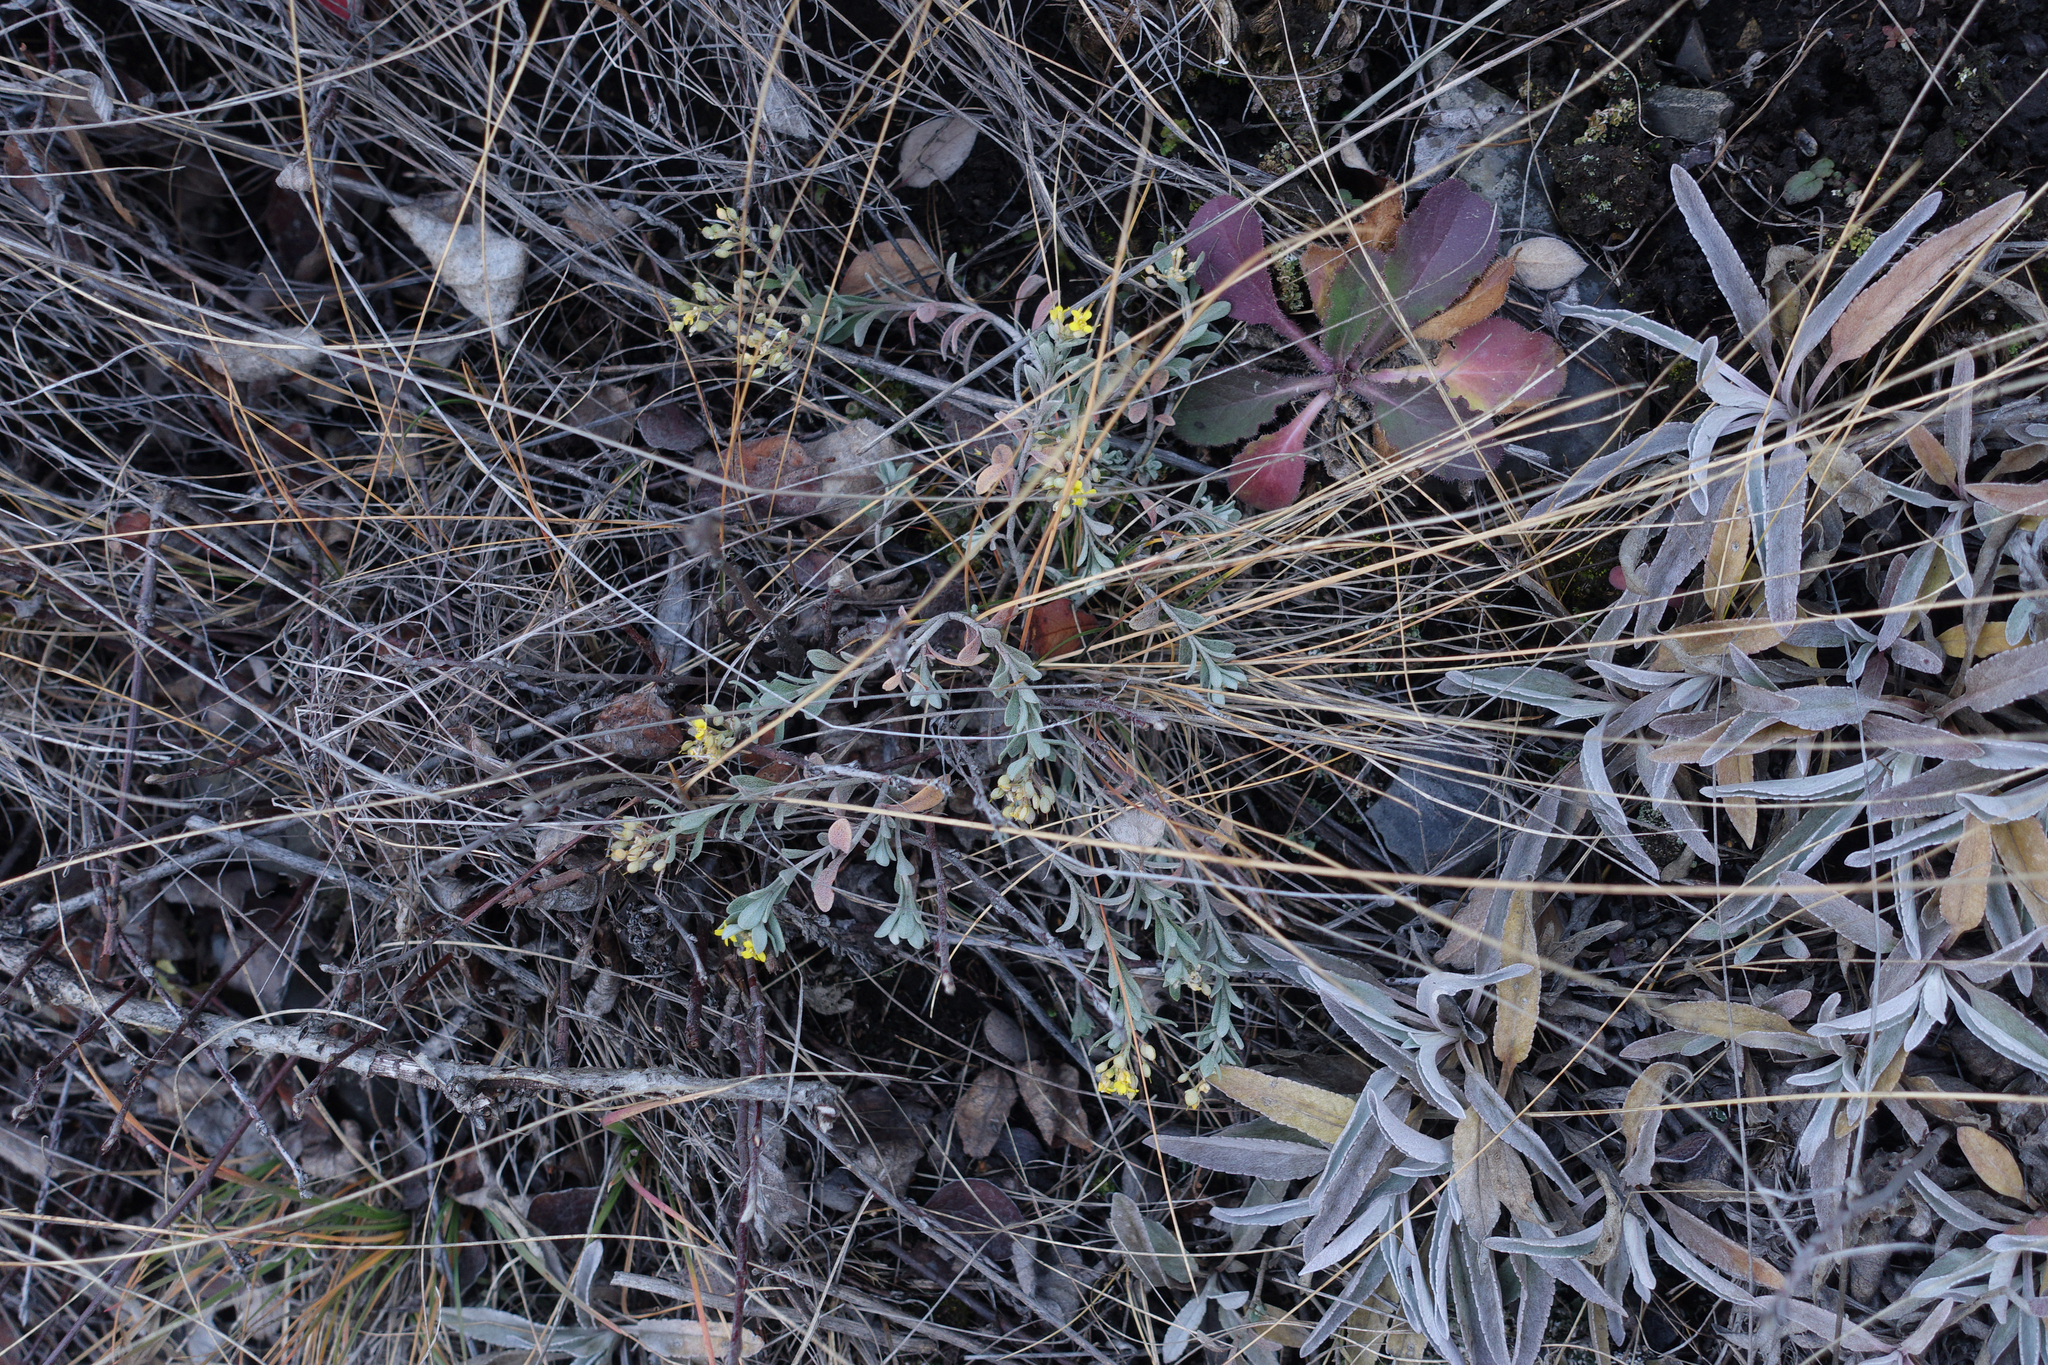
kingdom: Plantae
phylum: Tracheophyta
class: Magnoliopsida
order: Brassicales
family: Brassicaceae
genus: Odontarrhena
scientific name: Odontarrhena obovata
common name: American alyssum
